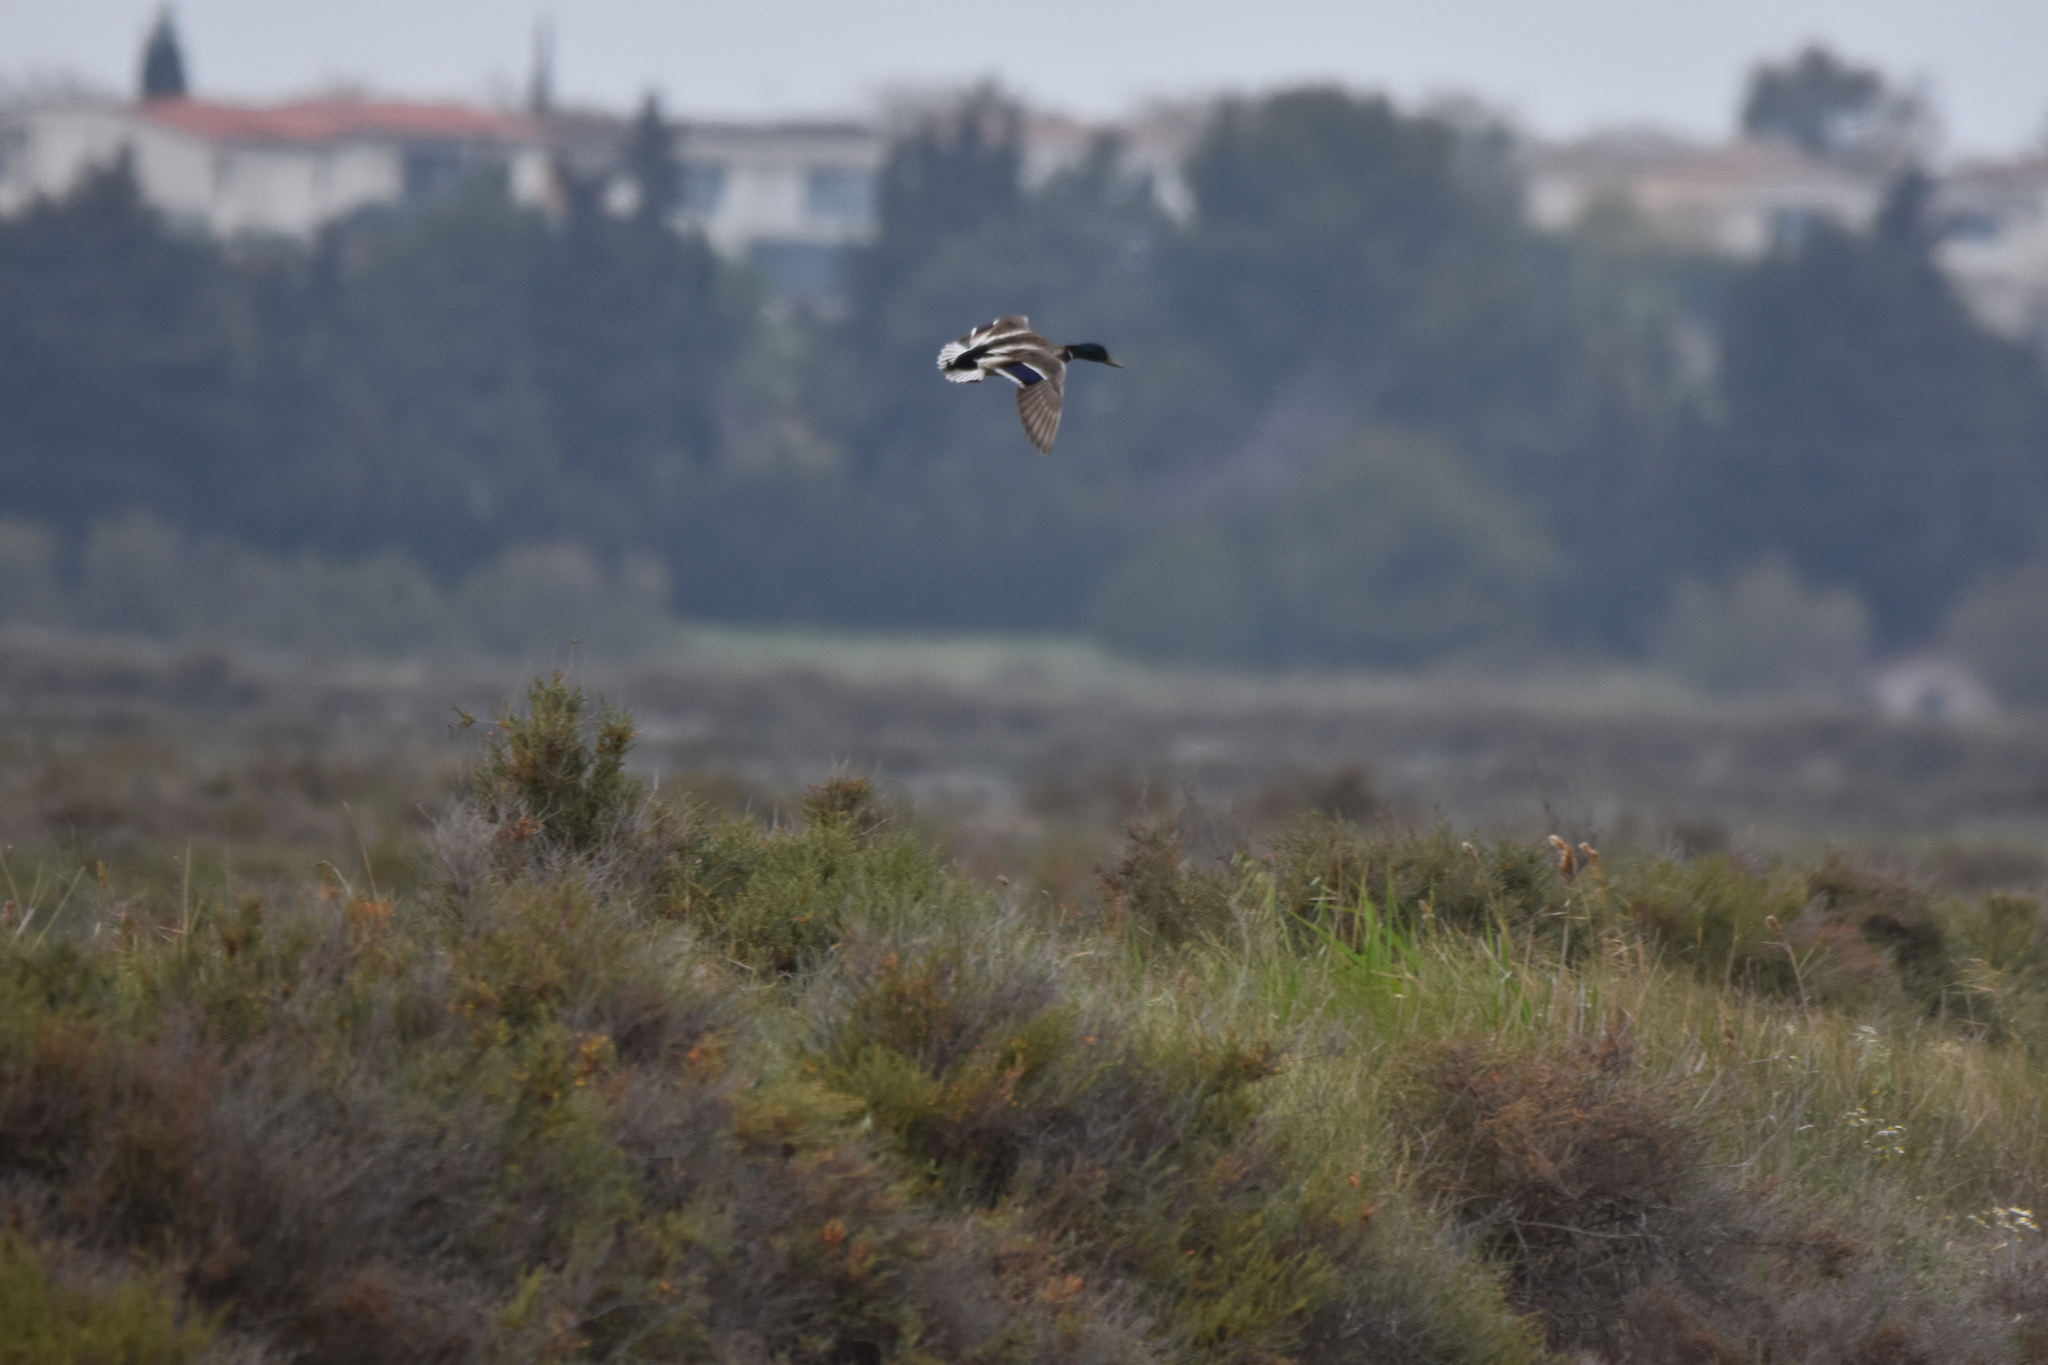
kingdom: Animalia
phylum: Chordata
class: Aves
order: Anseriformes
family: Anatidae
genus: Anas
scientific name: Anas platyrhynchos
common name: Mallard
